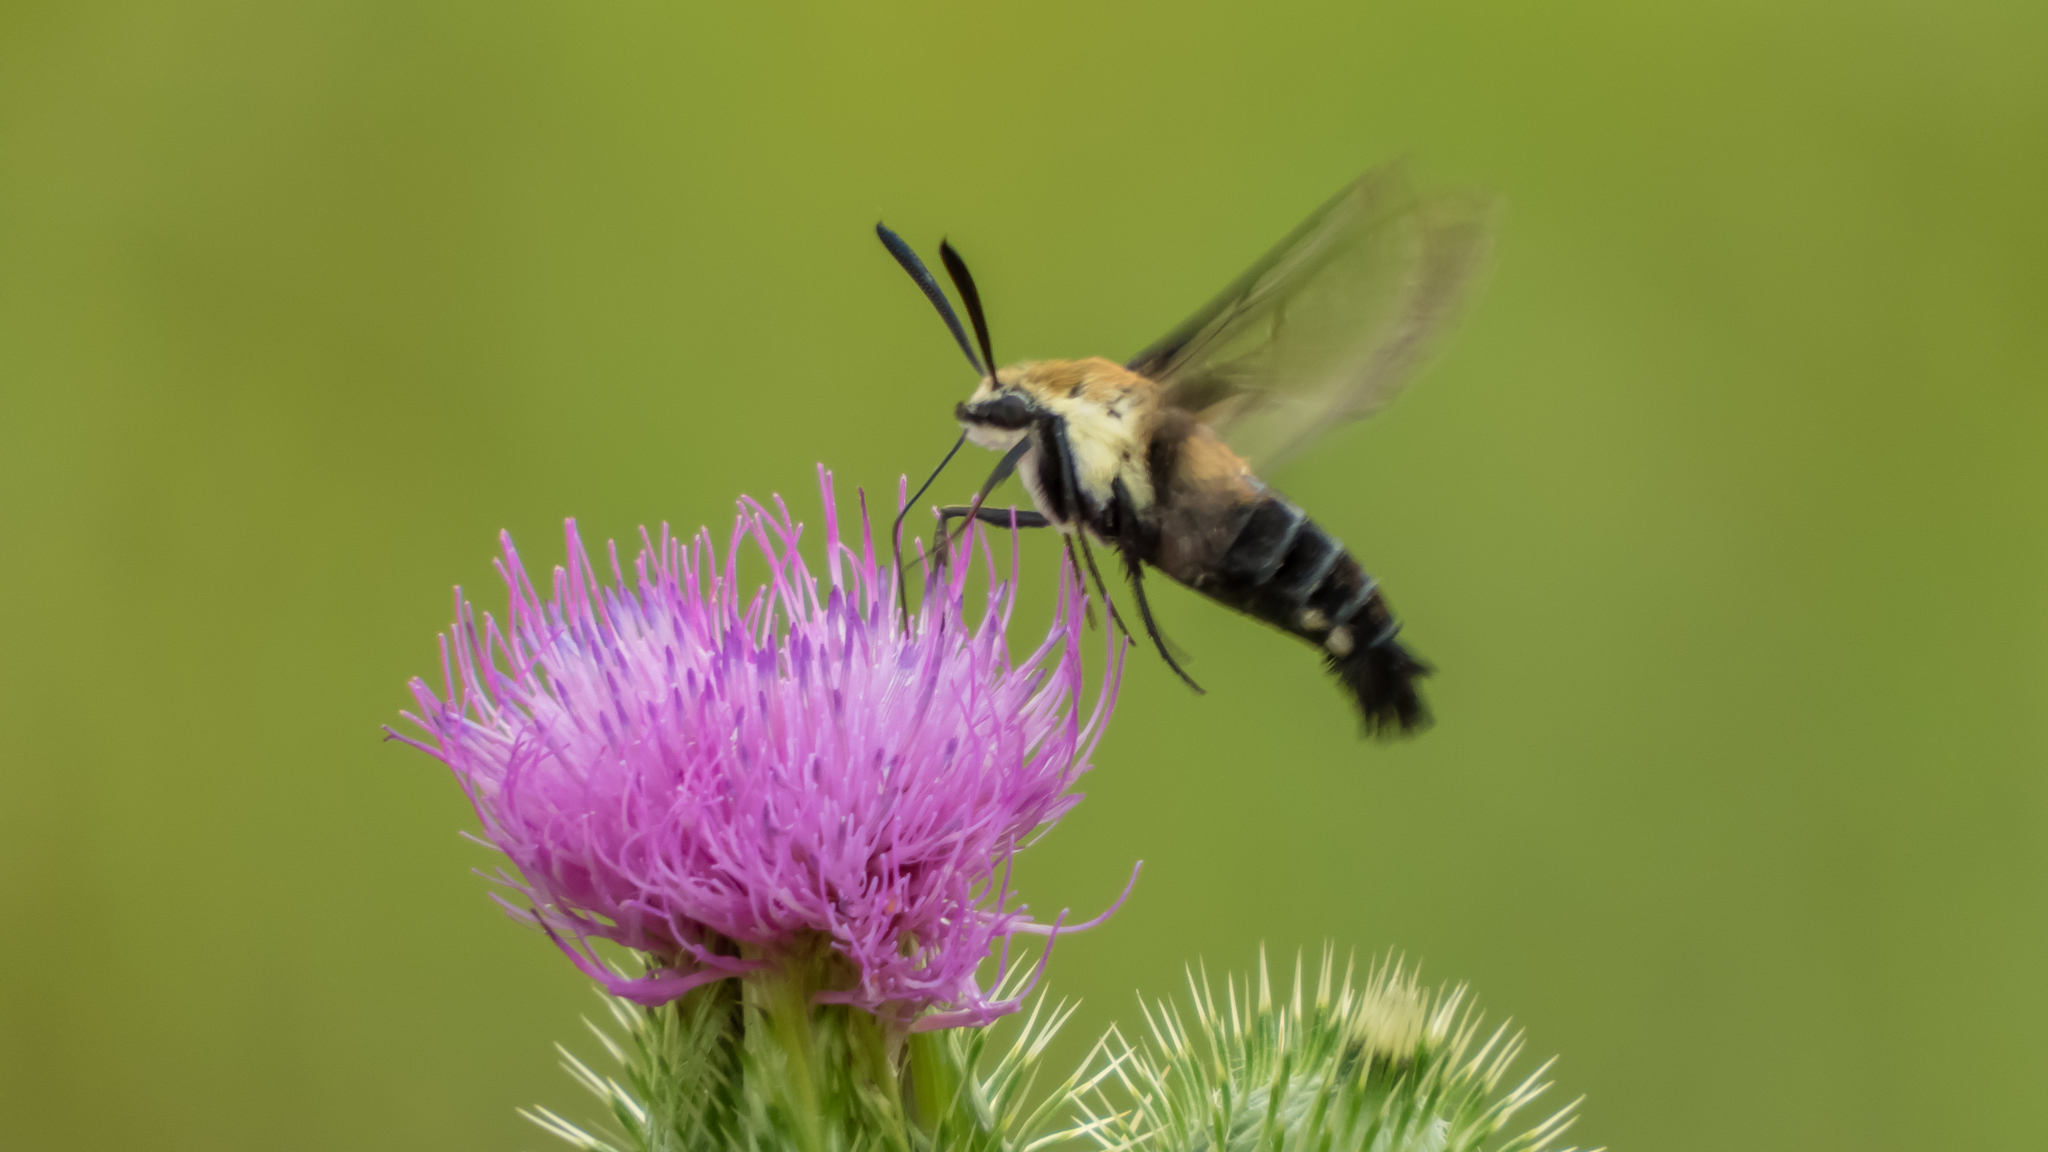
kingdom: Animalia
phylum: Arthropoda
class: Insecta
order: Lepidoptera
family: Sphingidae
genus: Hemaris
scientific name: Hemaris diffinis
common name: Bumblebee moth
